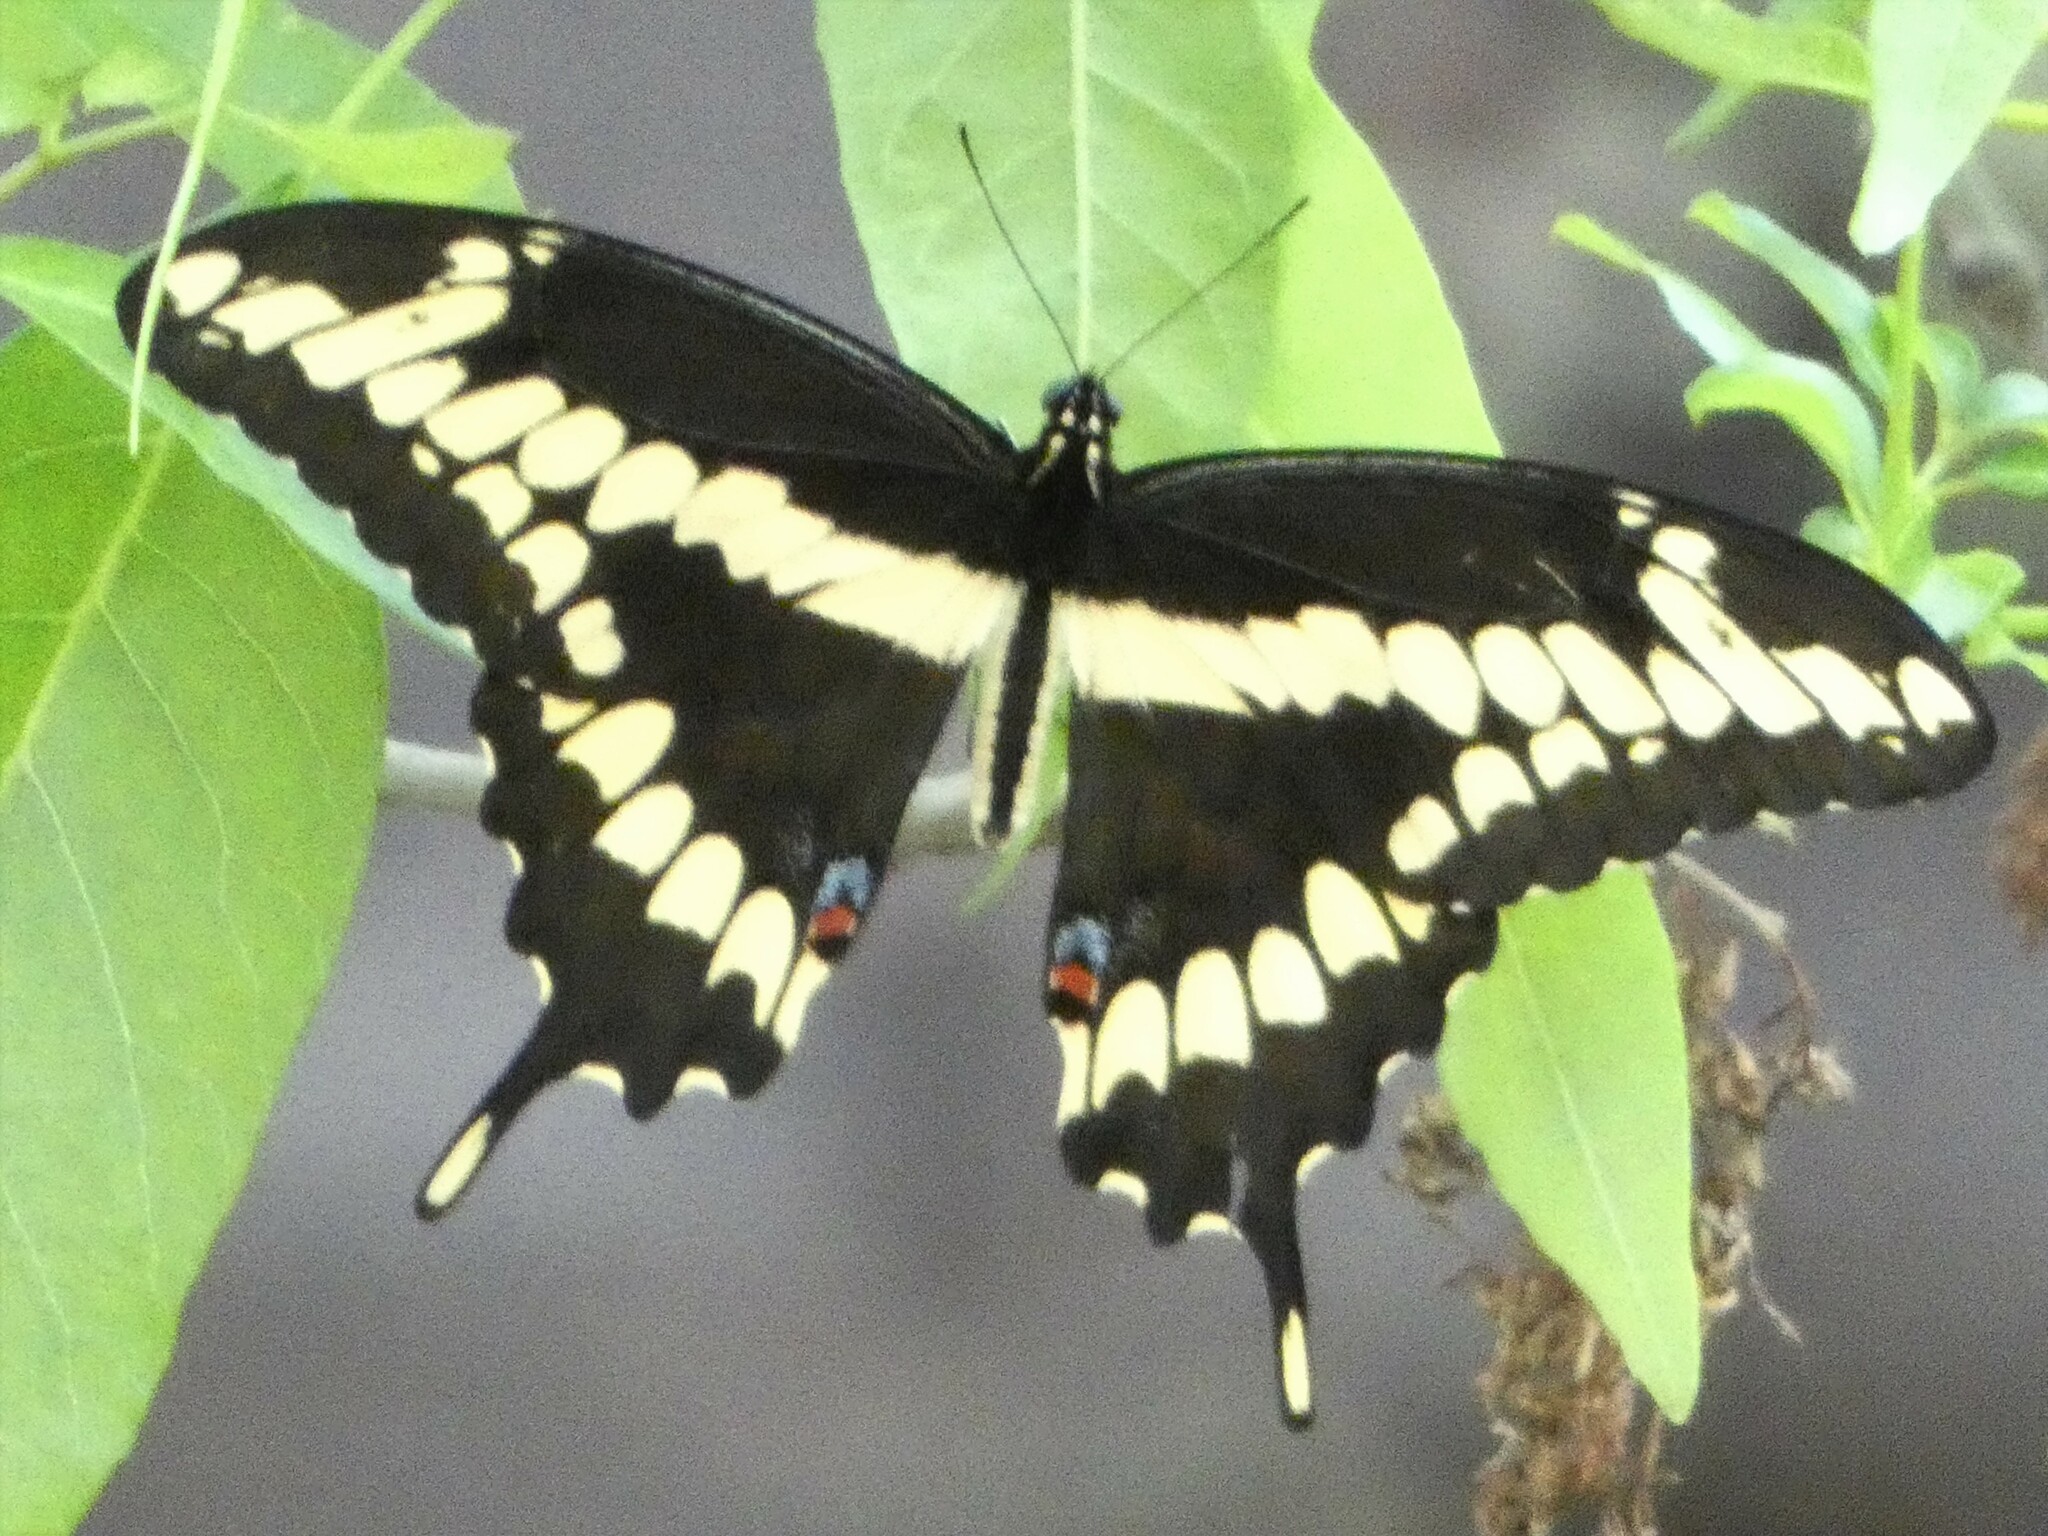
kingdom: Animalia
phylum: Arthropoda
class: Insecta
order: Lepidoptera
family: Papilionidae
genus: Papilio
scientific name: Papilio cresphontes
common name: Giant swallowtail
